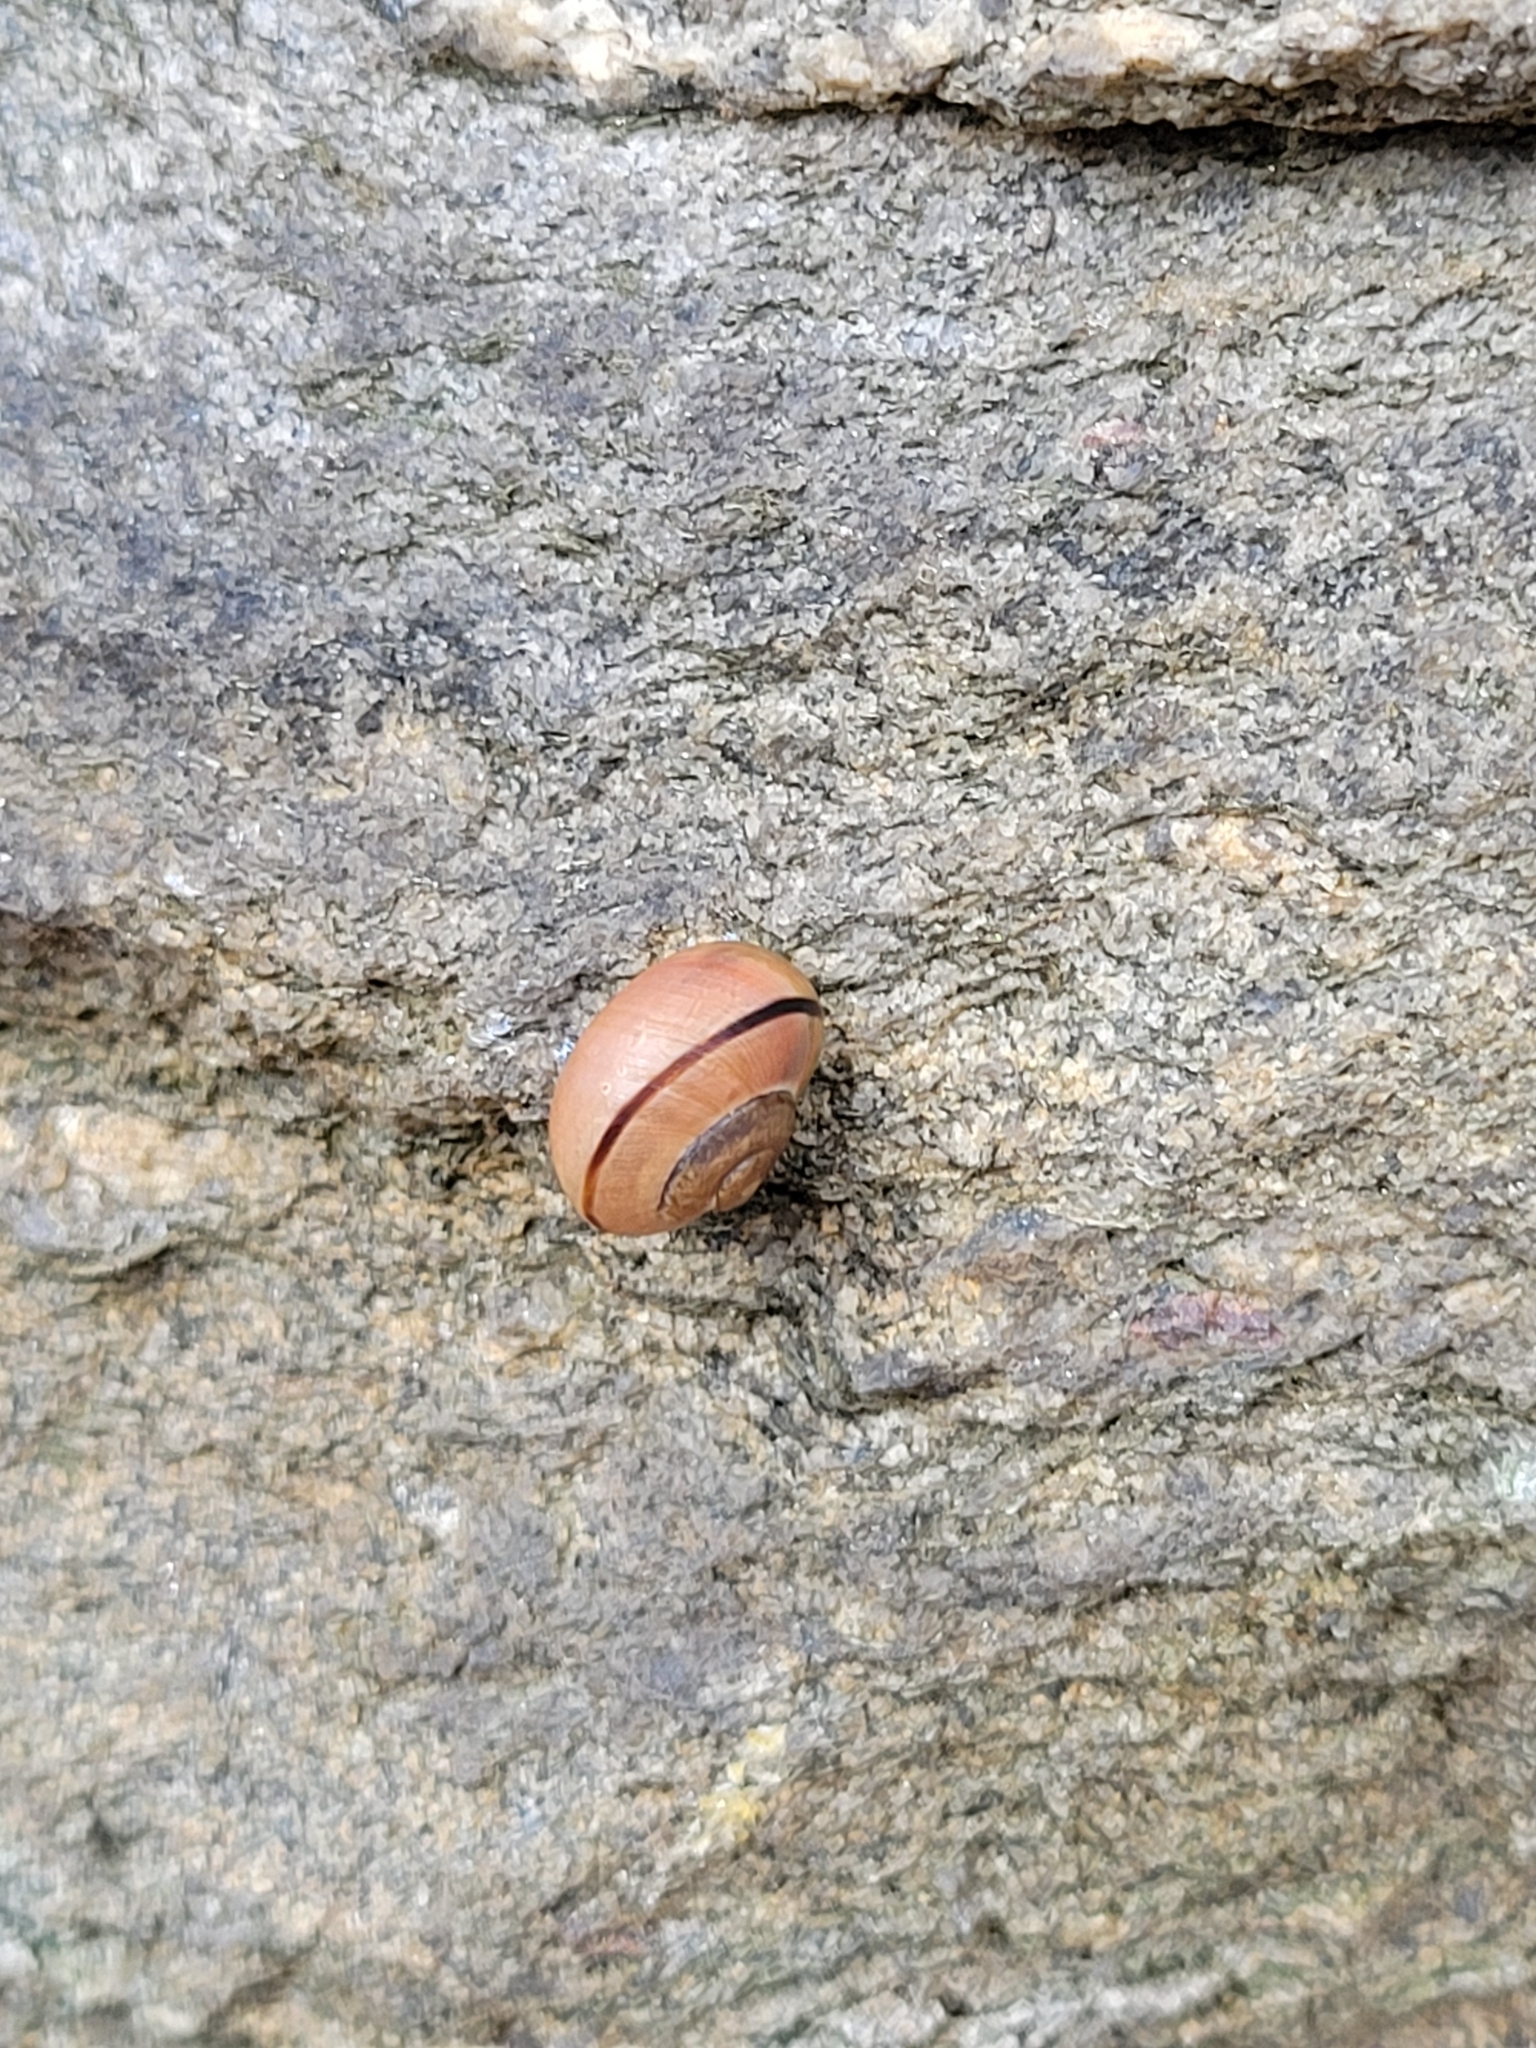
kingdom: Animalia
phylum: Mollusca
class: Gastropoda
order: Stylommatophora
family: Helicidae
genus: Cepaea
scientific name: Cepaea nemoralis
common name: Grovesnail
